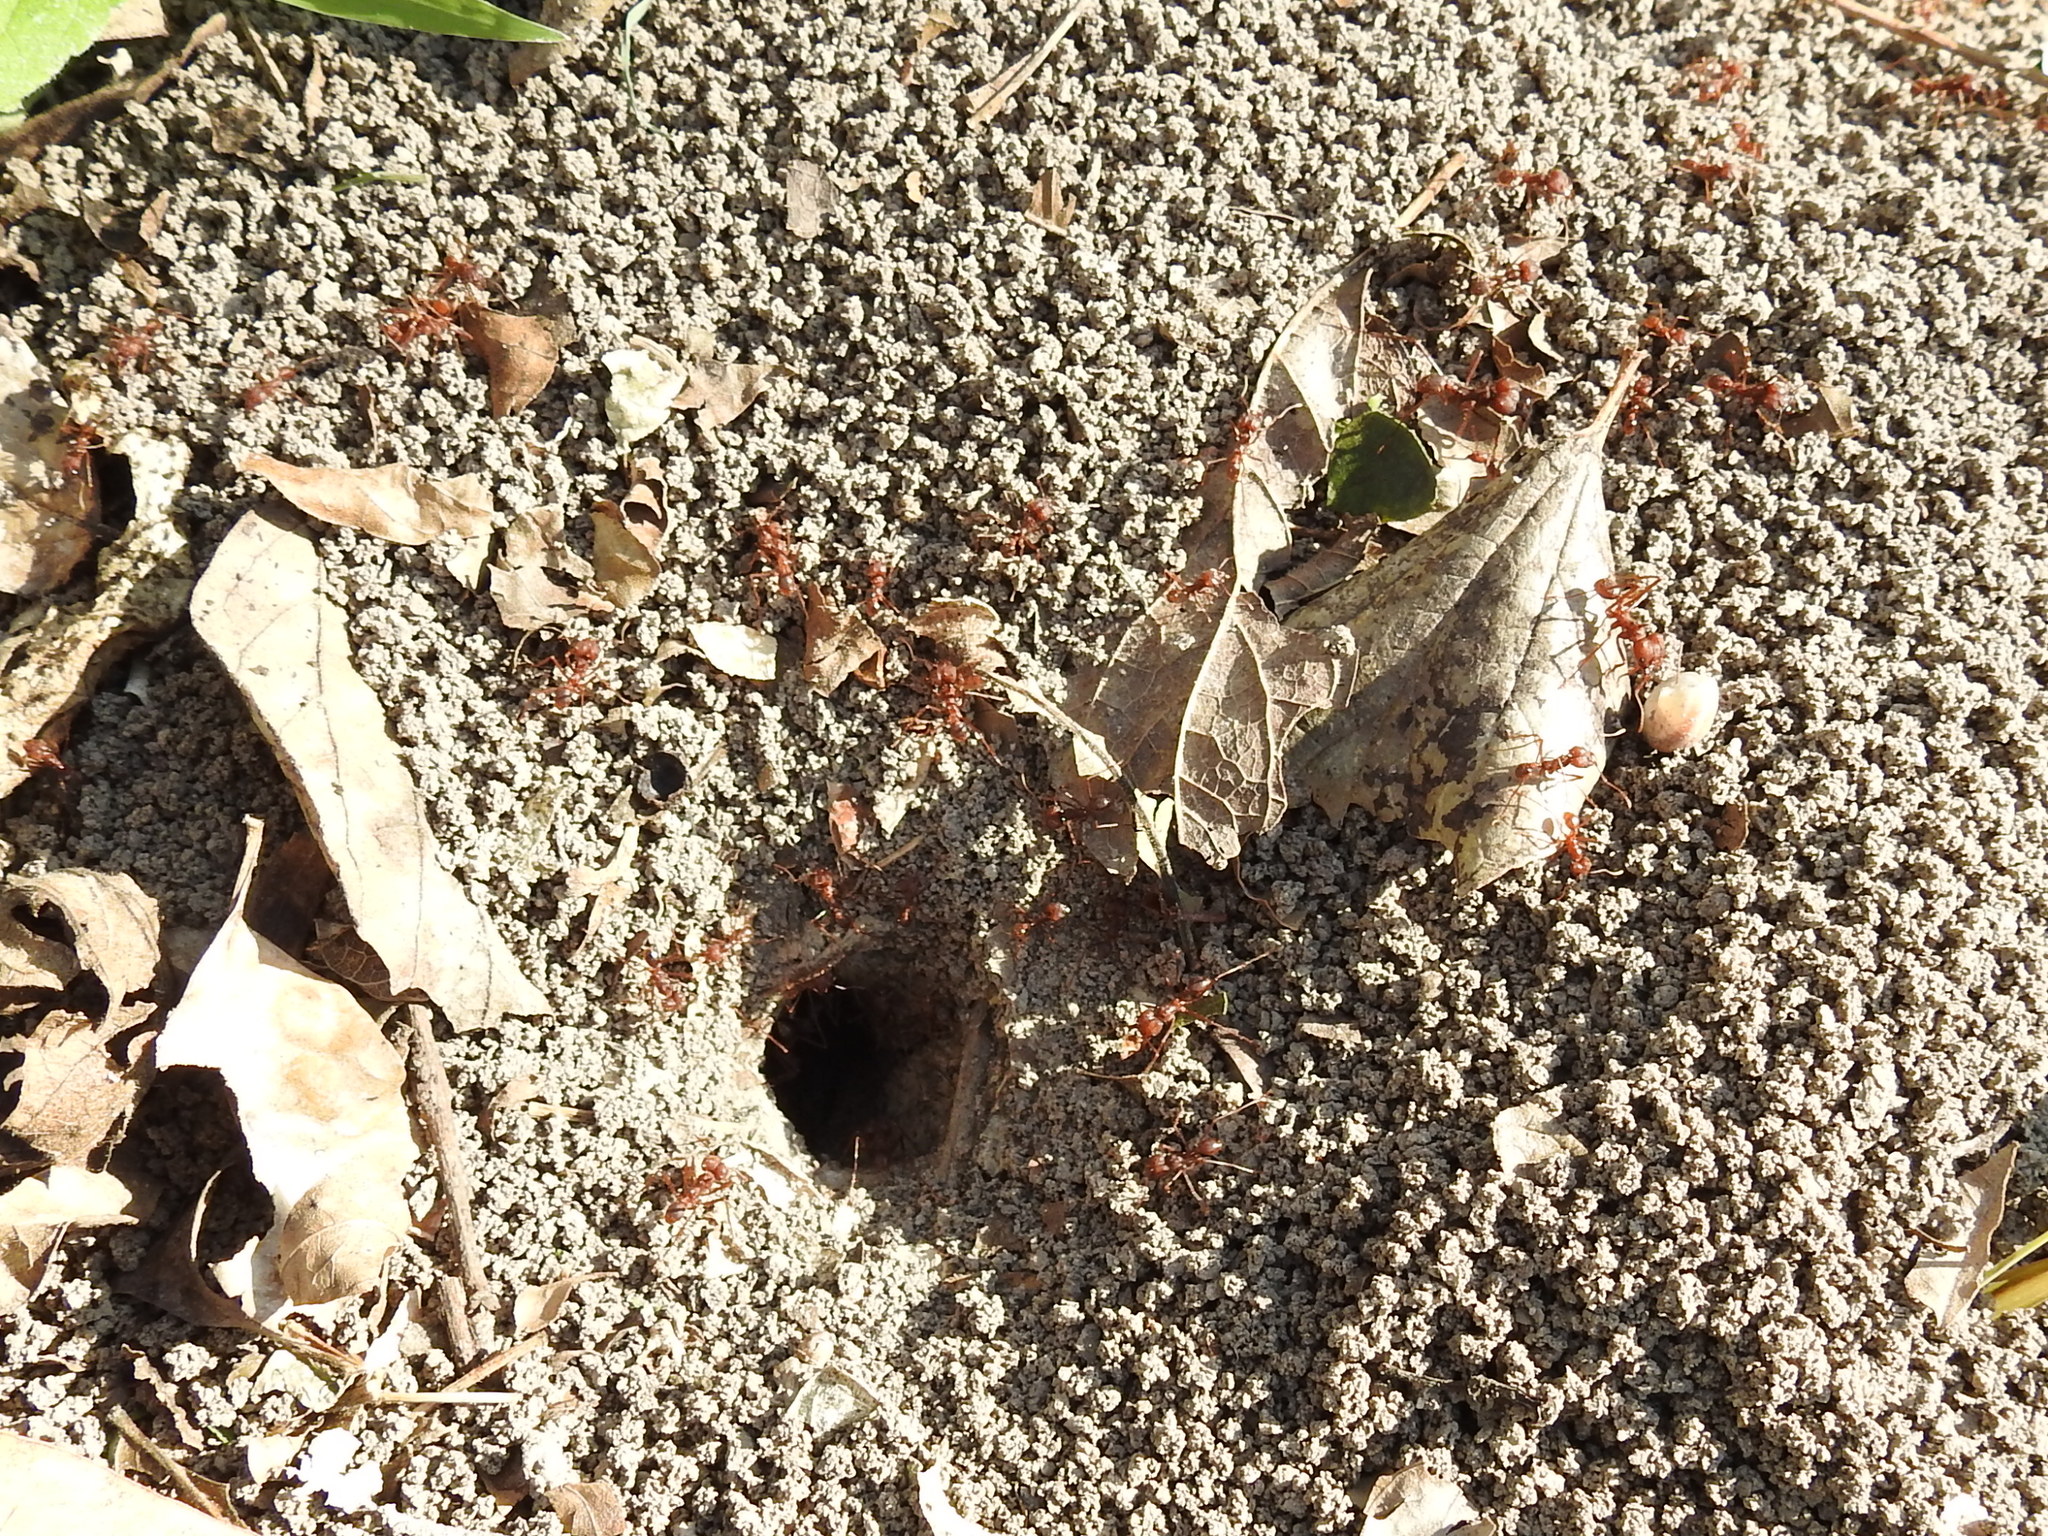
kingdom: Animalia
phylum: Arthropoda
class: Insecta
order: Hymenoptera
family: Formicidae
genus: Atta
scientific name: Atta texana
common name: Texas leafcutting ant
